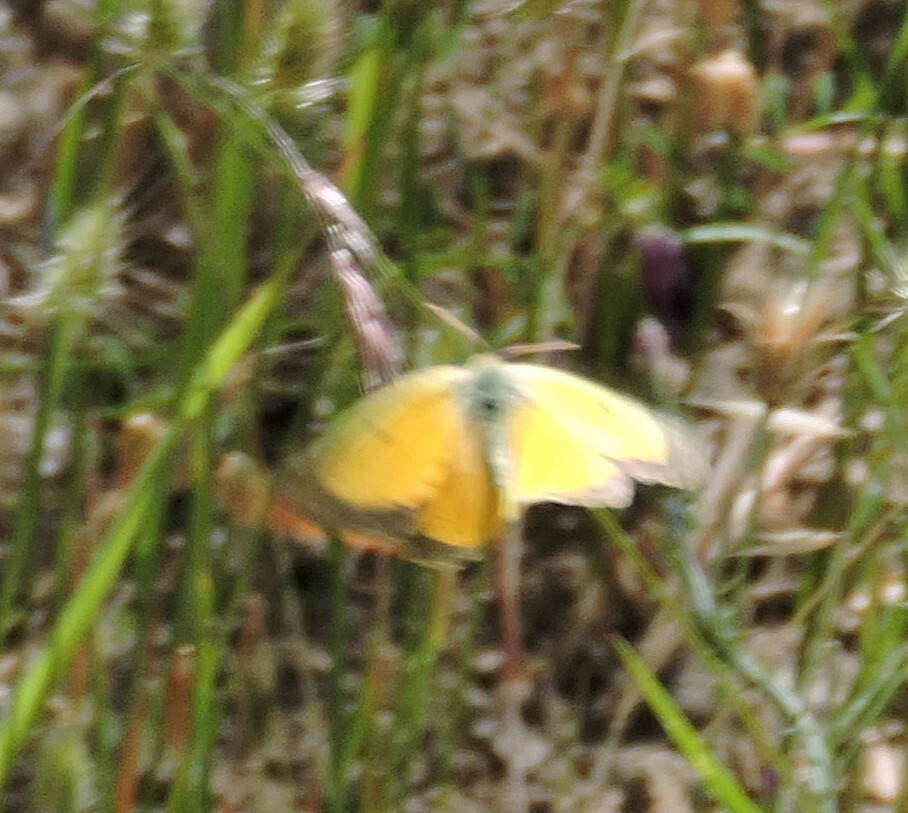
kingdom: Animalia
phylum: Arthropoda
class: Insecta
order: Lepidoptera
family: Pieridae
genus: Colias
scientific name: Colias eurytheme
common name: Alfalfa butterfly
